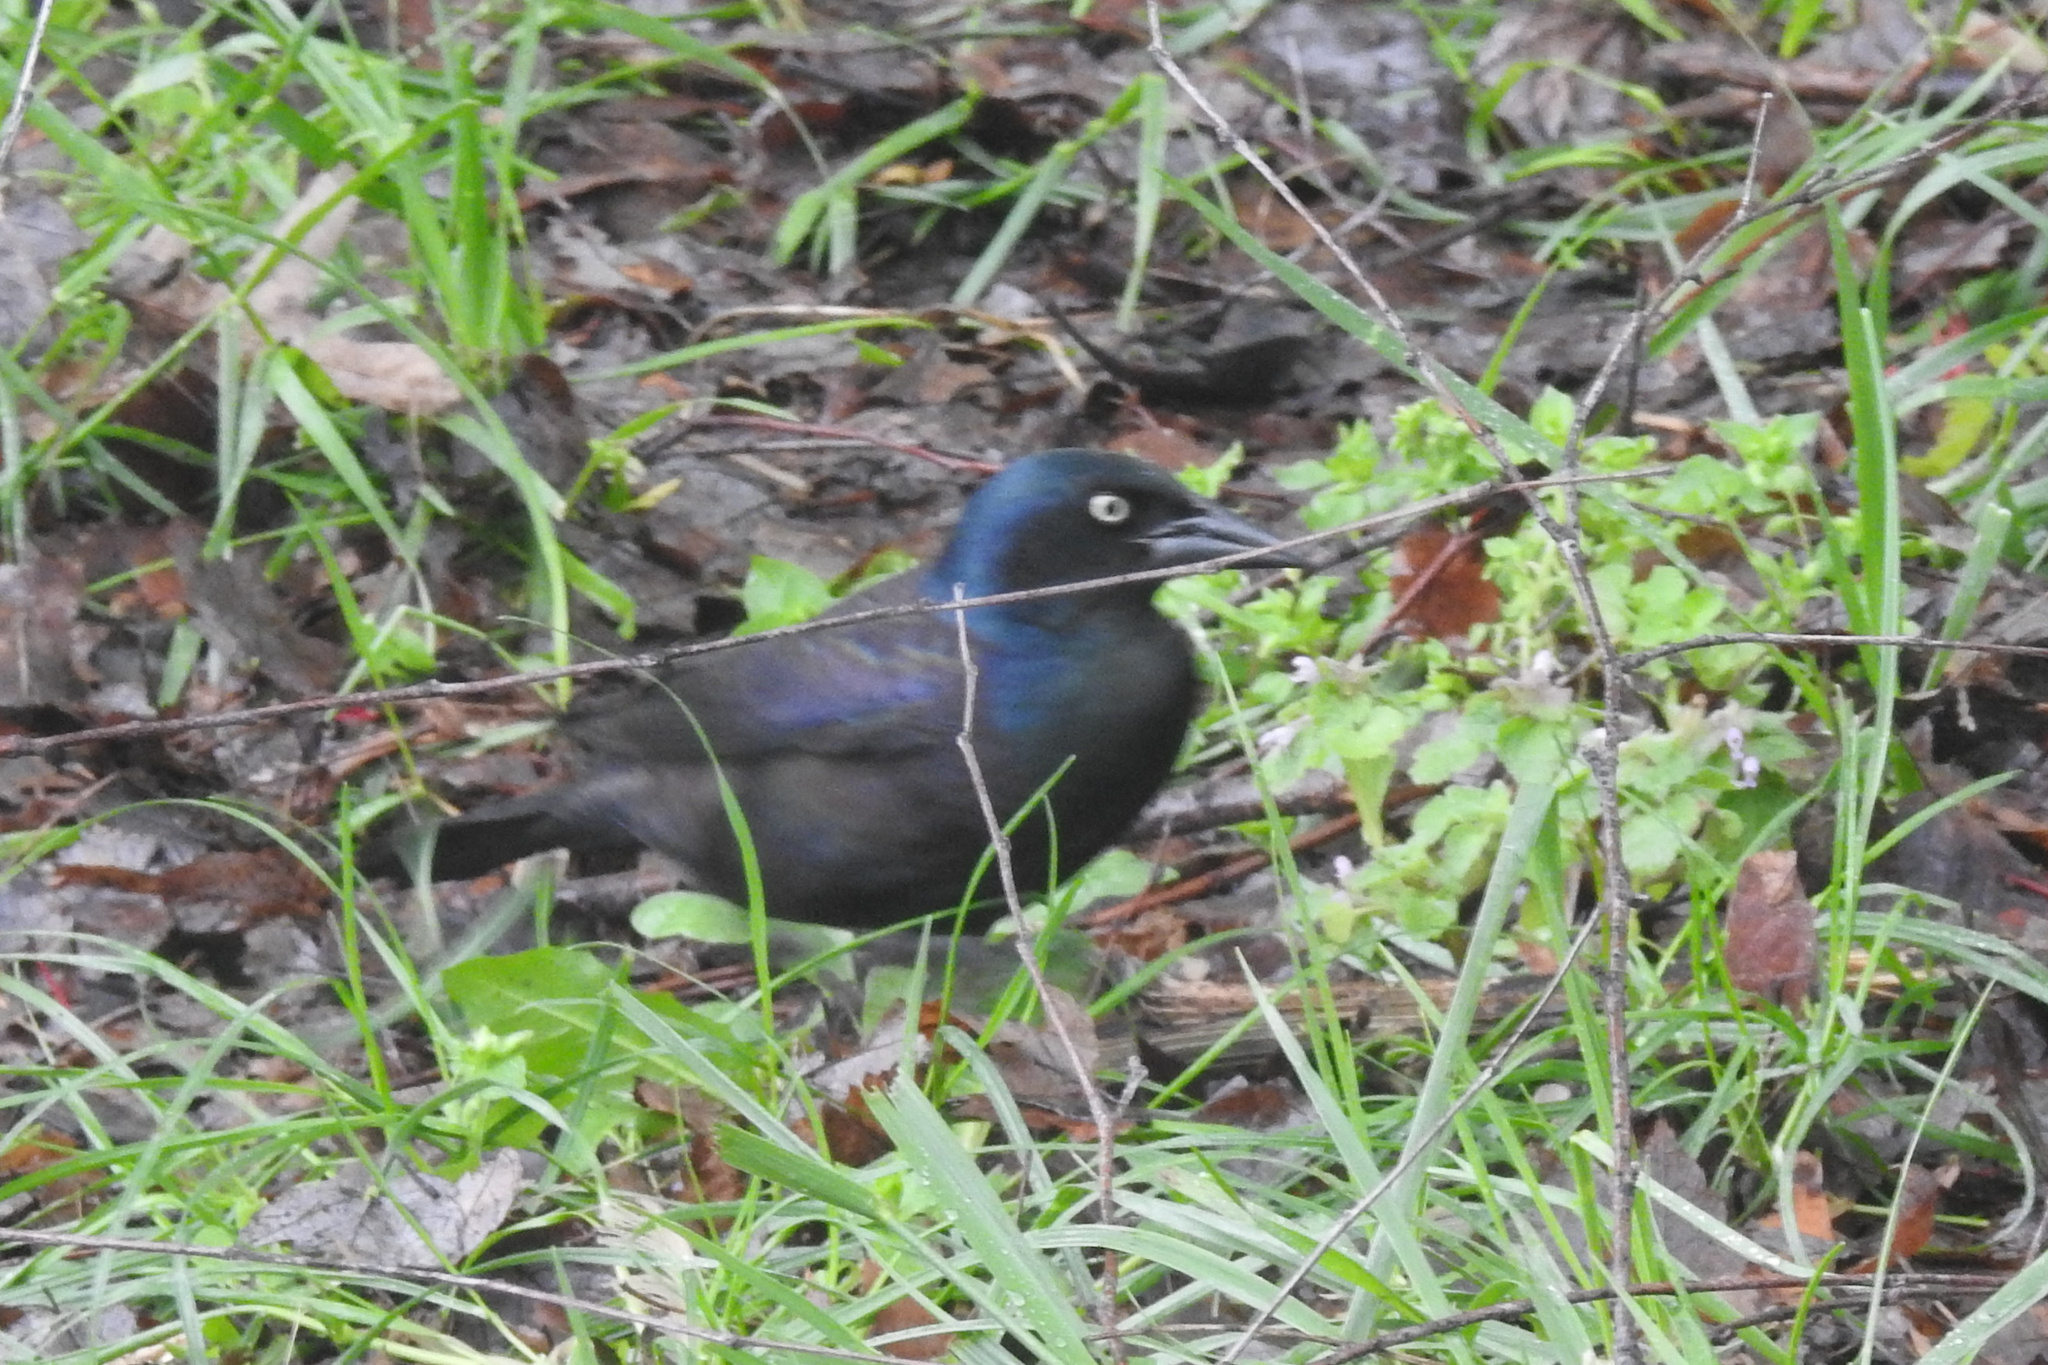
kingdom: Animalia
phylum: Chordata
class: Aves
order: Passeriformes
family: Icteridae
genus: Quiscalus
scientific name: Quiscalus quiscula
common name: Common grackle
